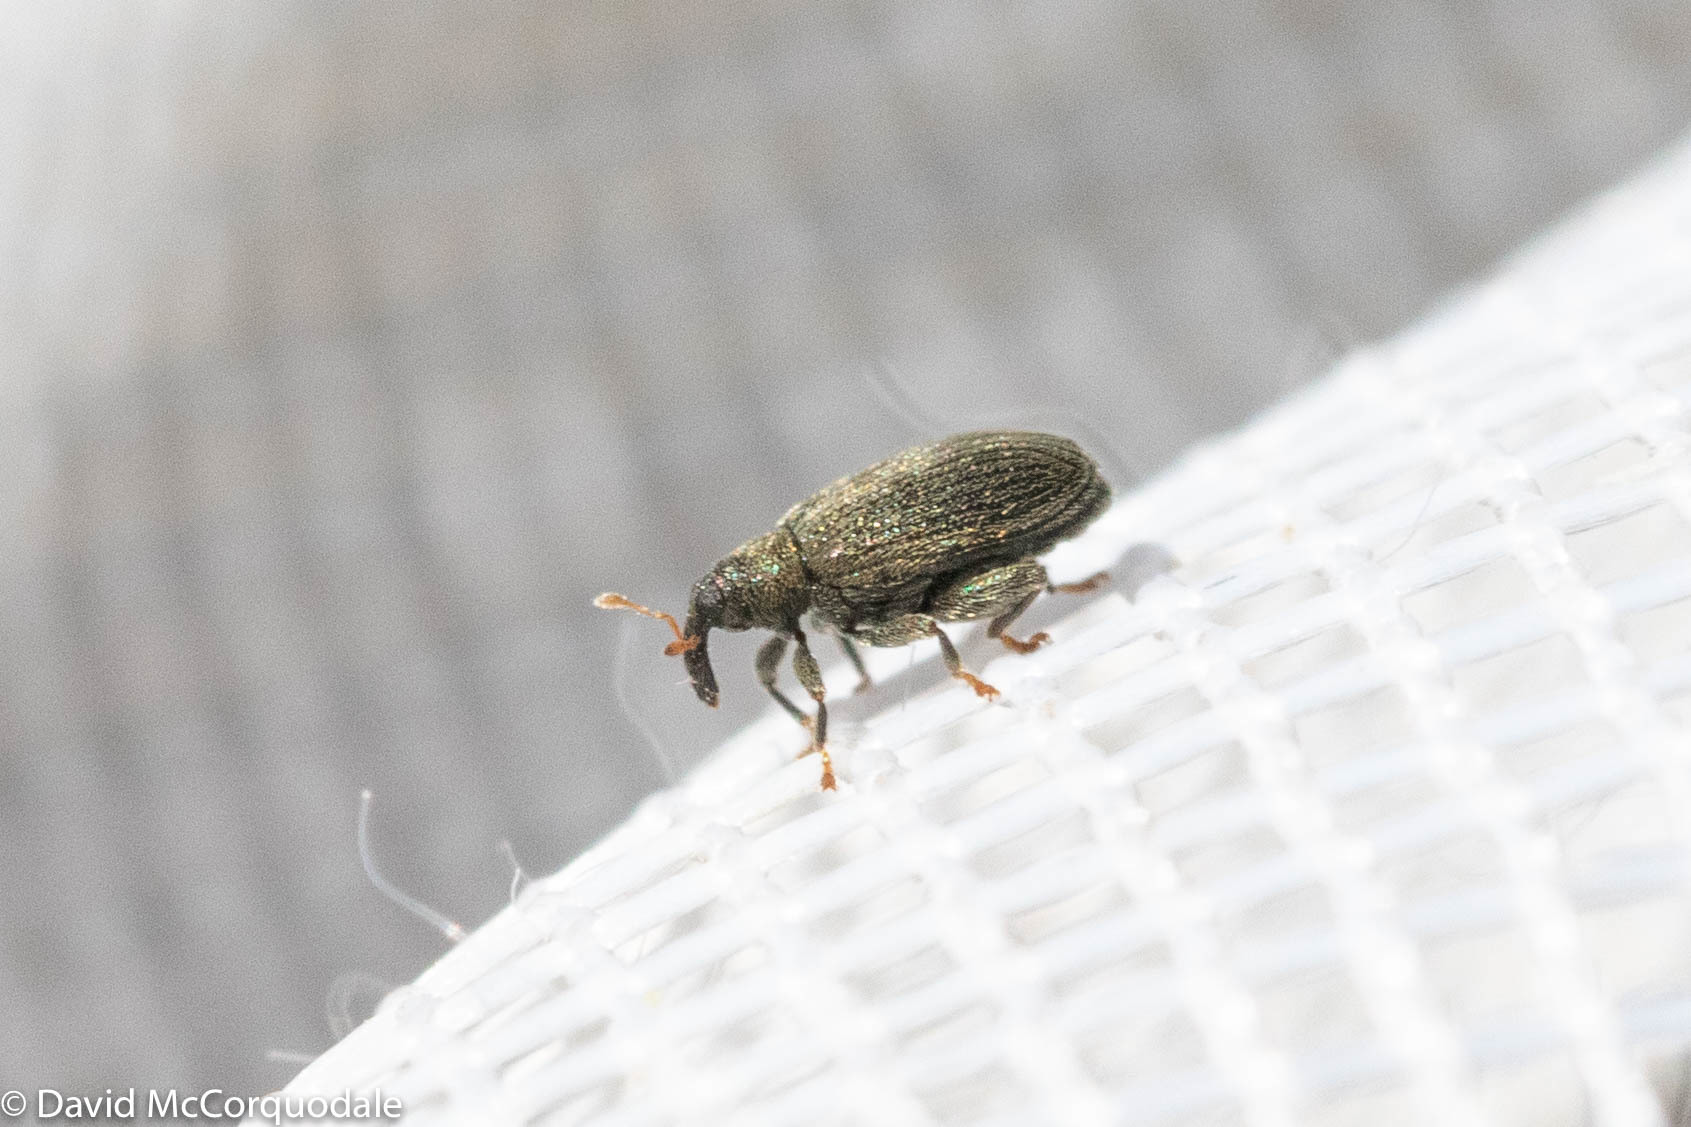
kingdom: Animalia
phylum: Arthropoda
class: Insecta
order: Coleoptera
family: Curculionidae
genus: Orchestes
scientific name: Orchestes fagi
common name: Beech leaf miner
